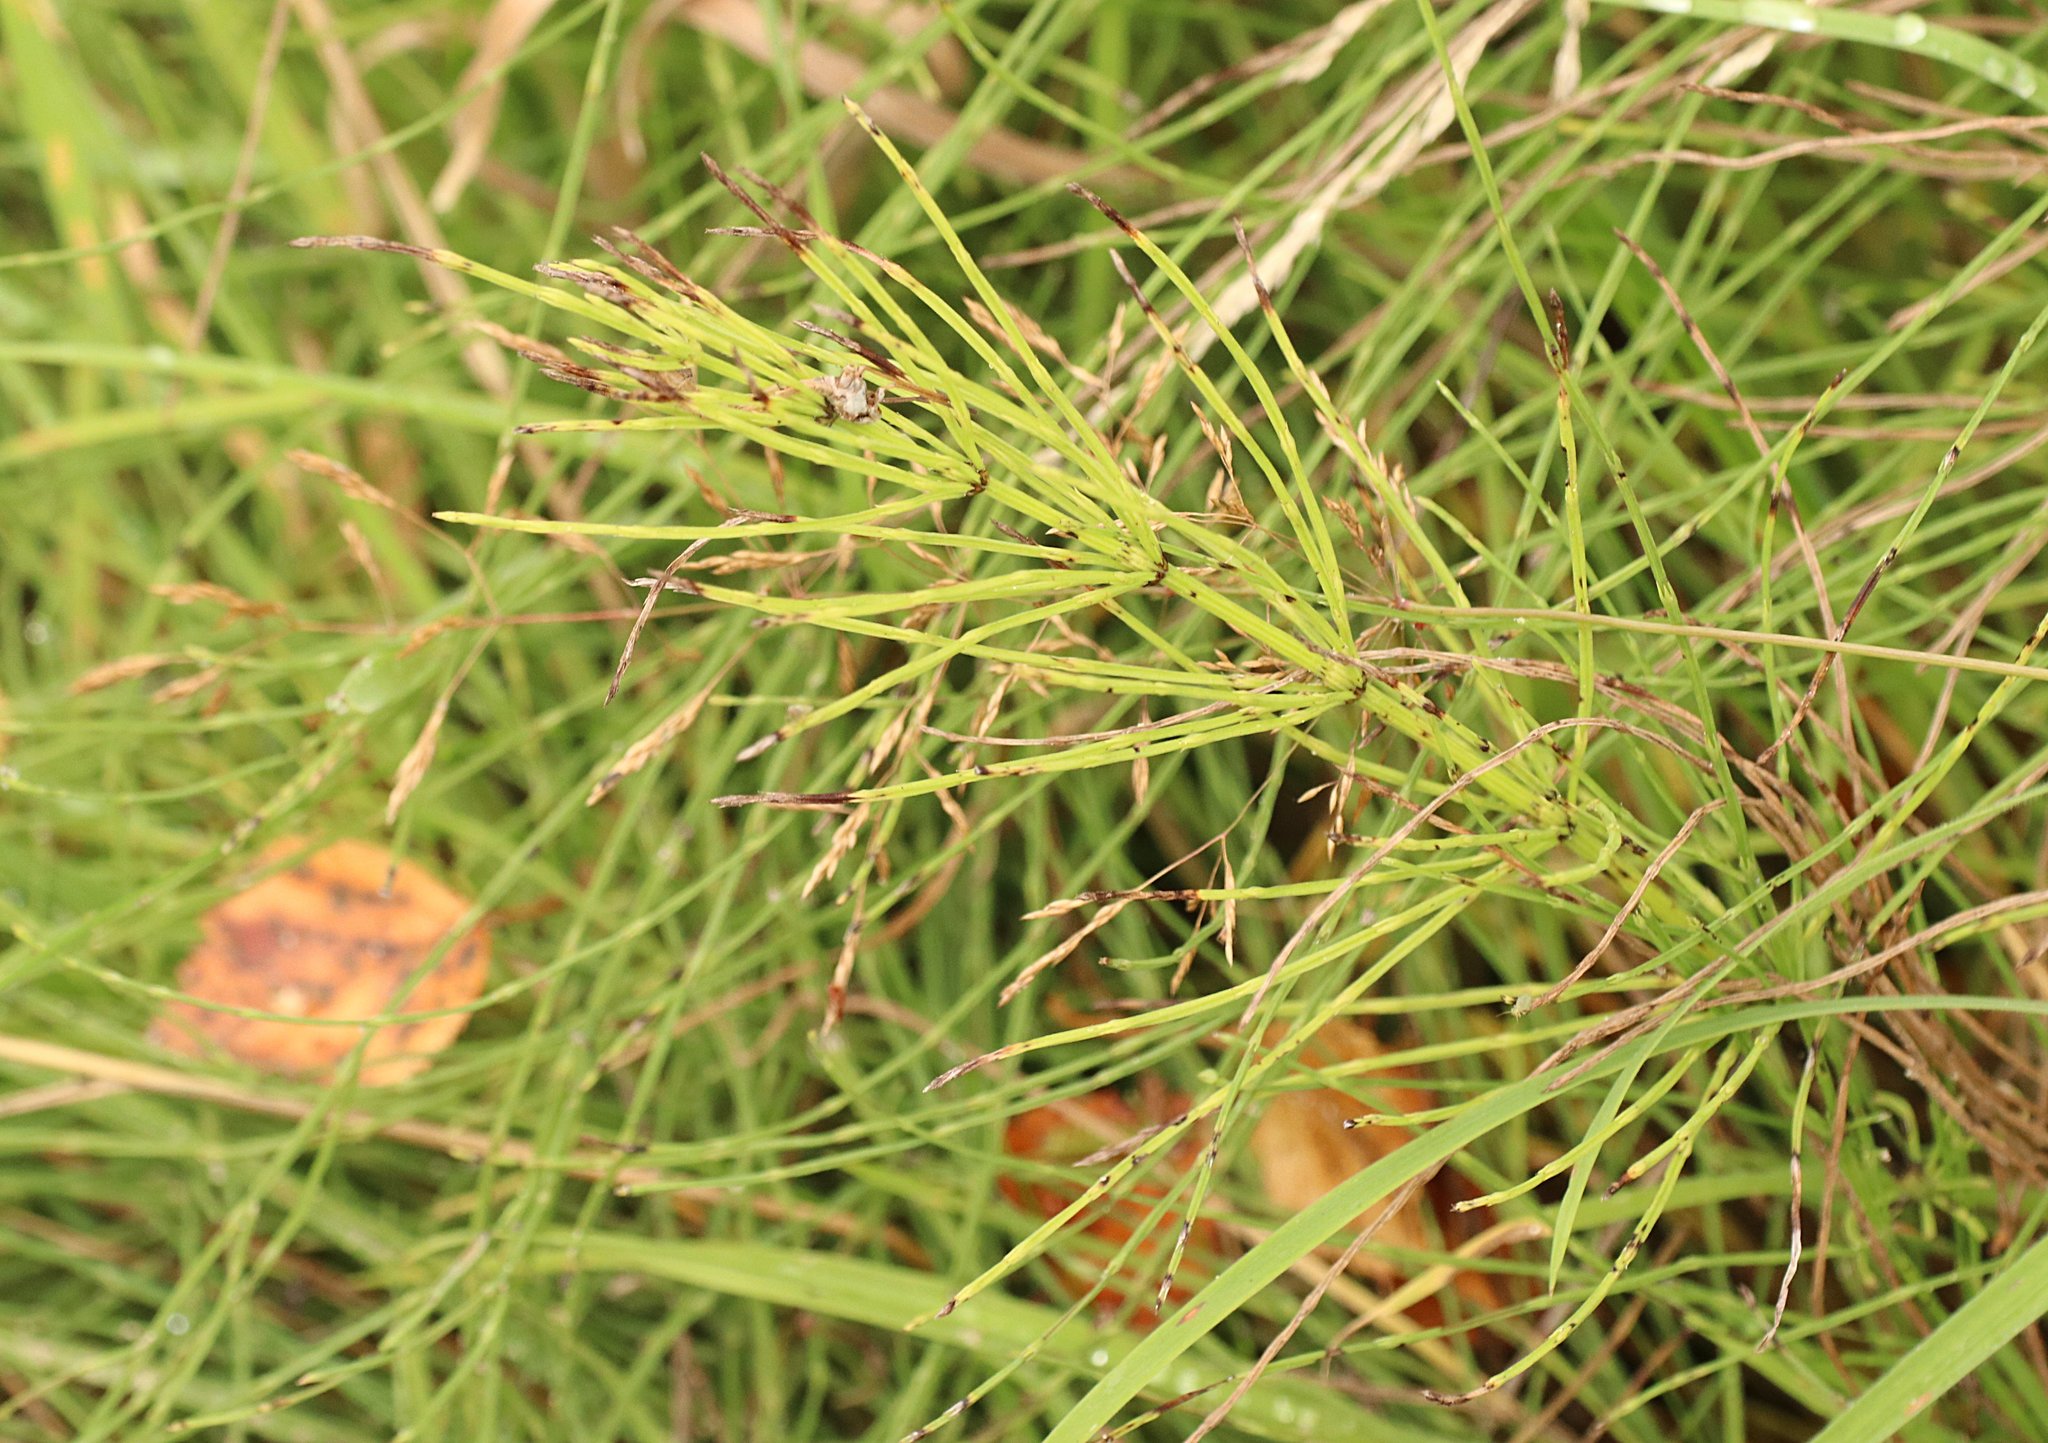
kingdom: Plantae
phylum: Tracheophyta
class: Polypodiopsida
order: Equisetales
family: Equisetaceae
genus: Equisetum
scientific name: Equisetum arvense
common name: Field horsetail
